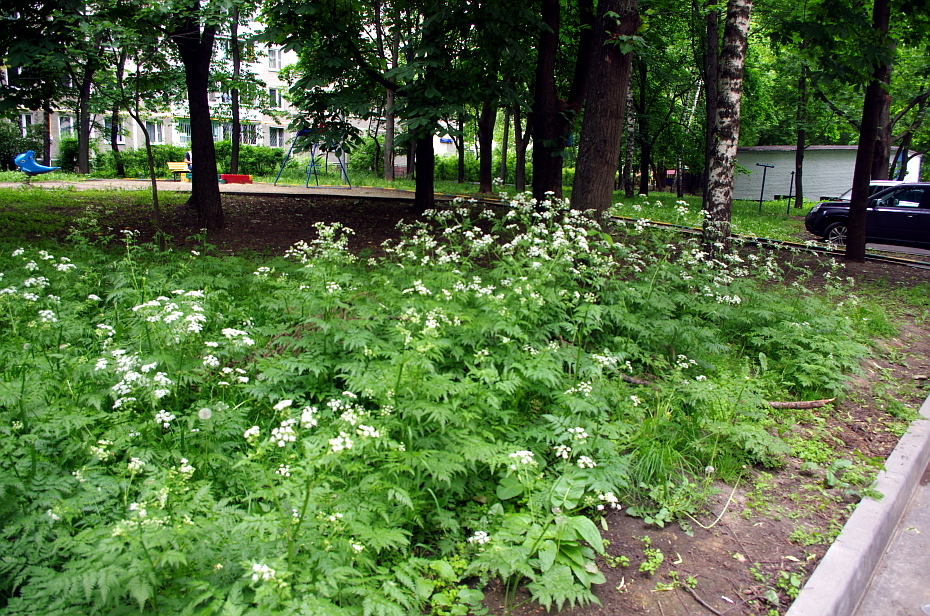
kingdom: Plantae
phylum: Tracheophyta
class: Magnoliopsida
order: Apiales
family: Apiaceae
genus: Anthriscus
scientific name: Anthriscus sylvestris
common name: Cow parsley
